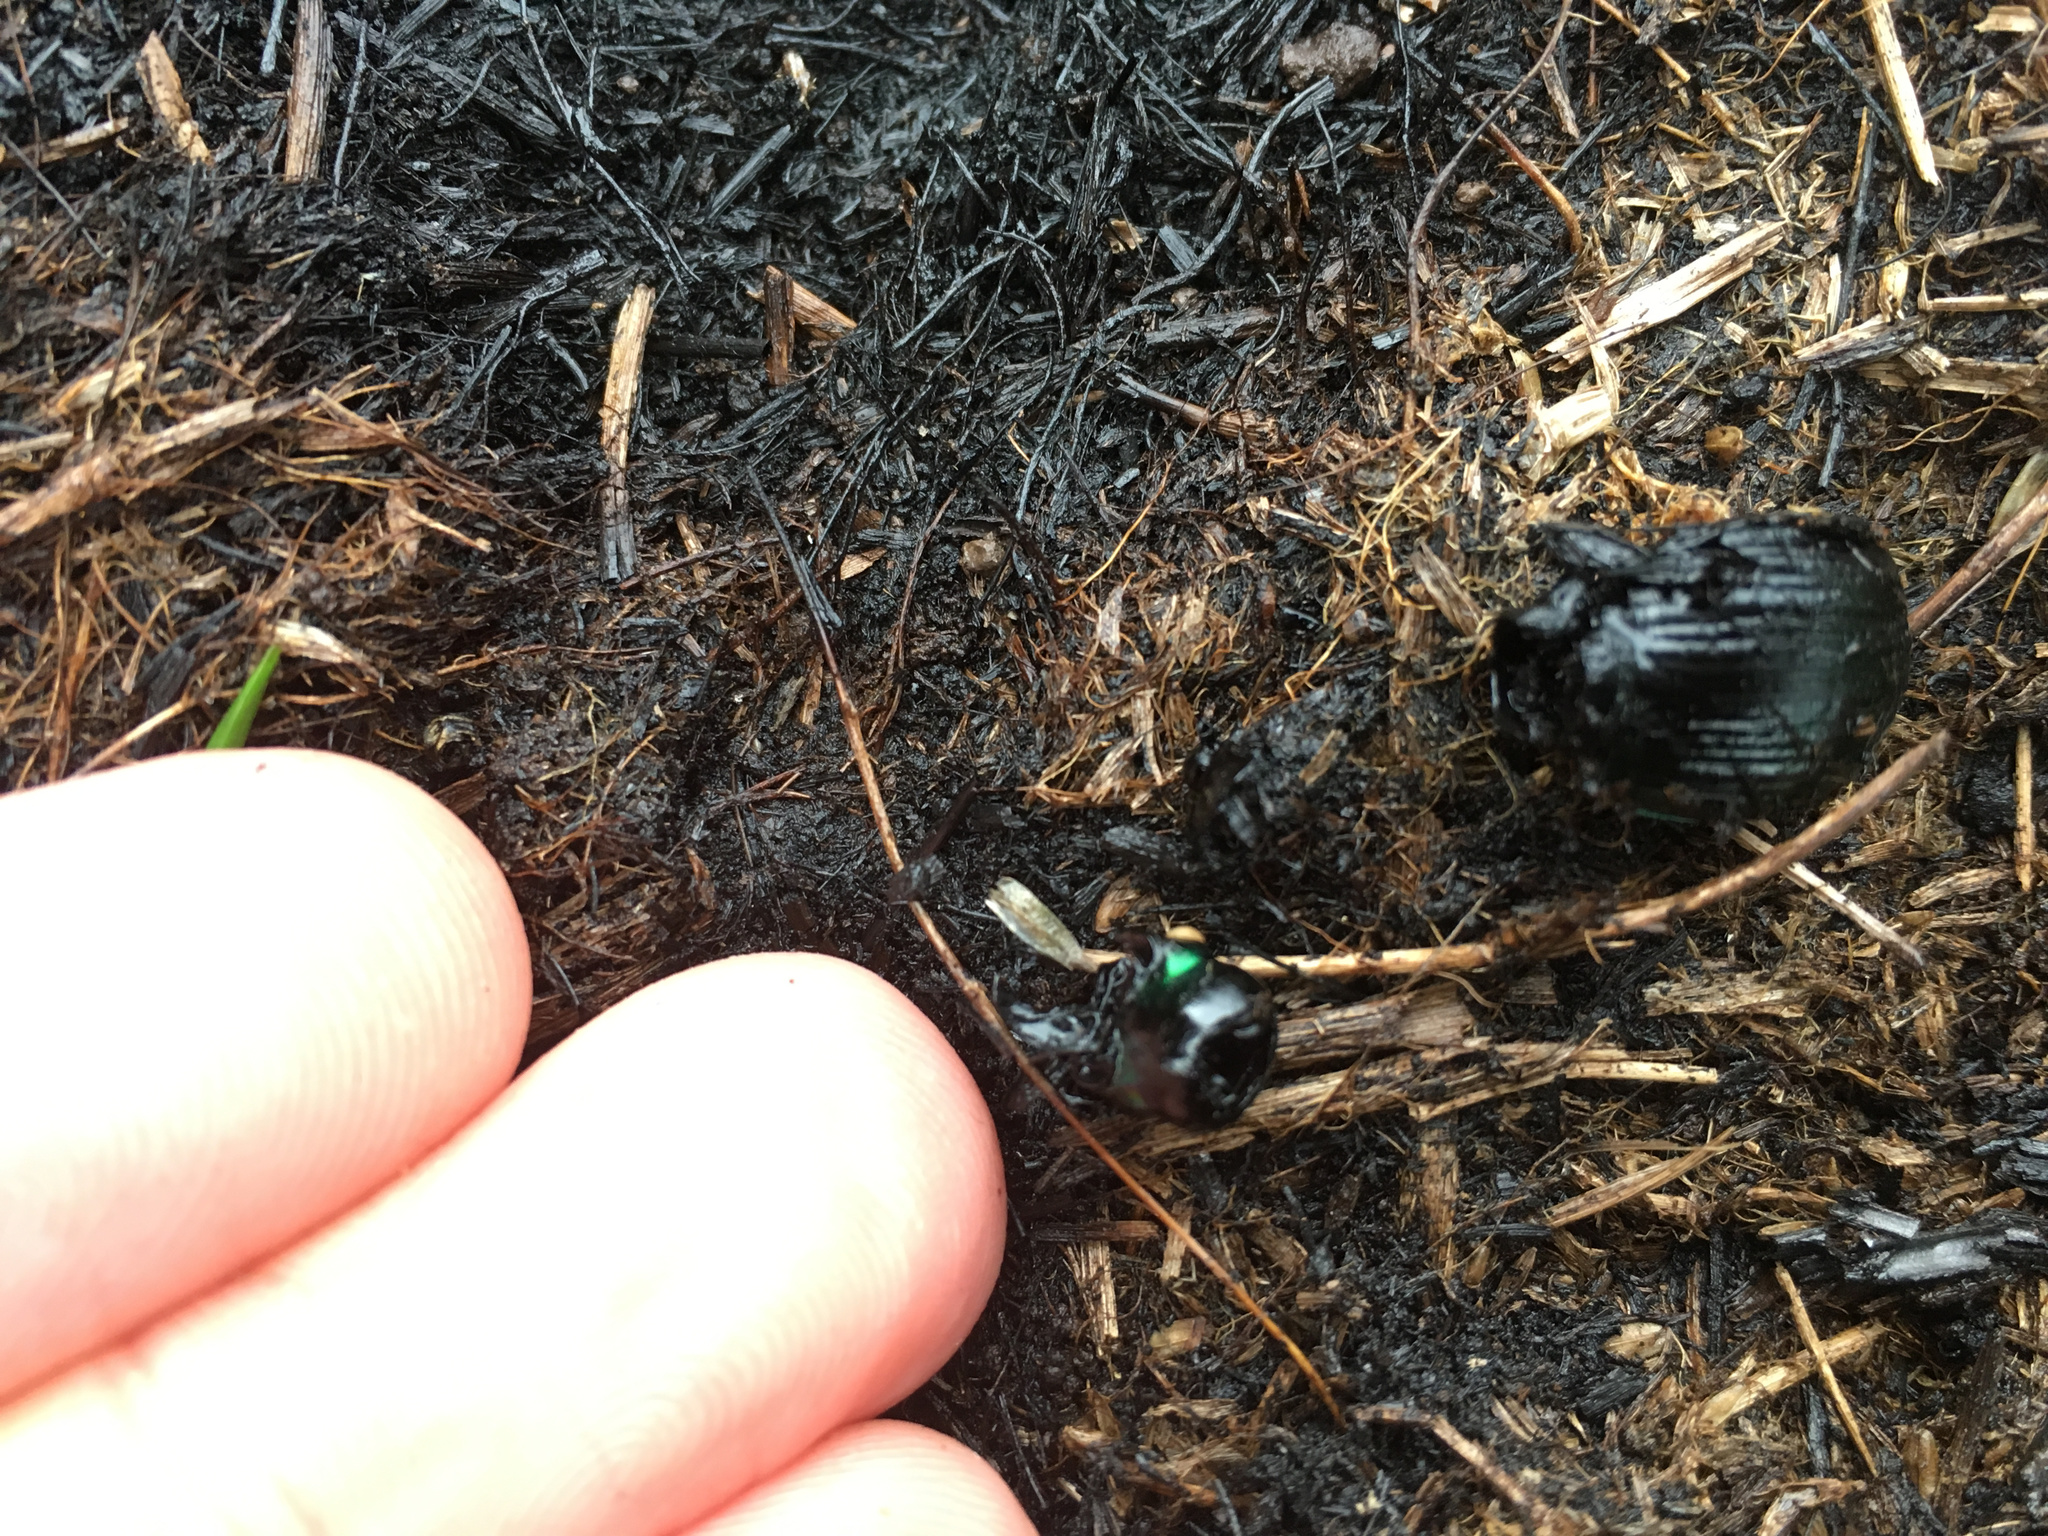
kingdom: Animalia
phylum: Arthropoda
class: Insecta
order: Coleoptera
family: Carabidae
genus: Megadromus
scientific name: Megadromus antarcticus
